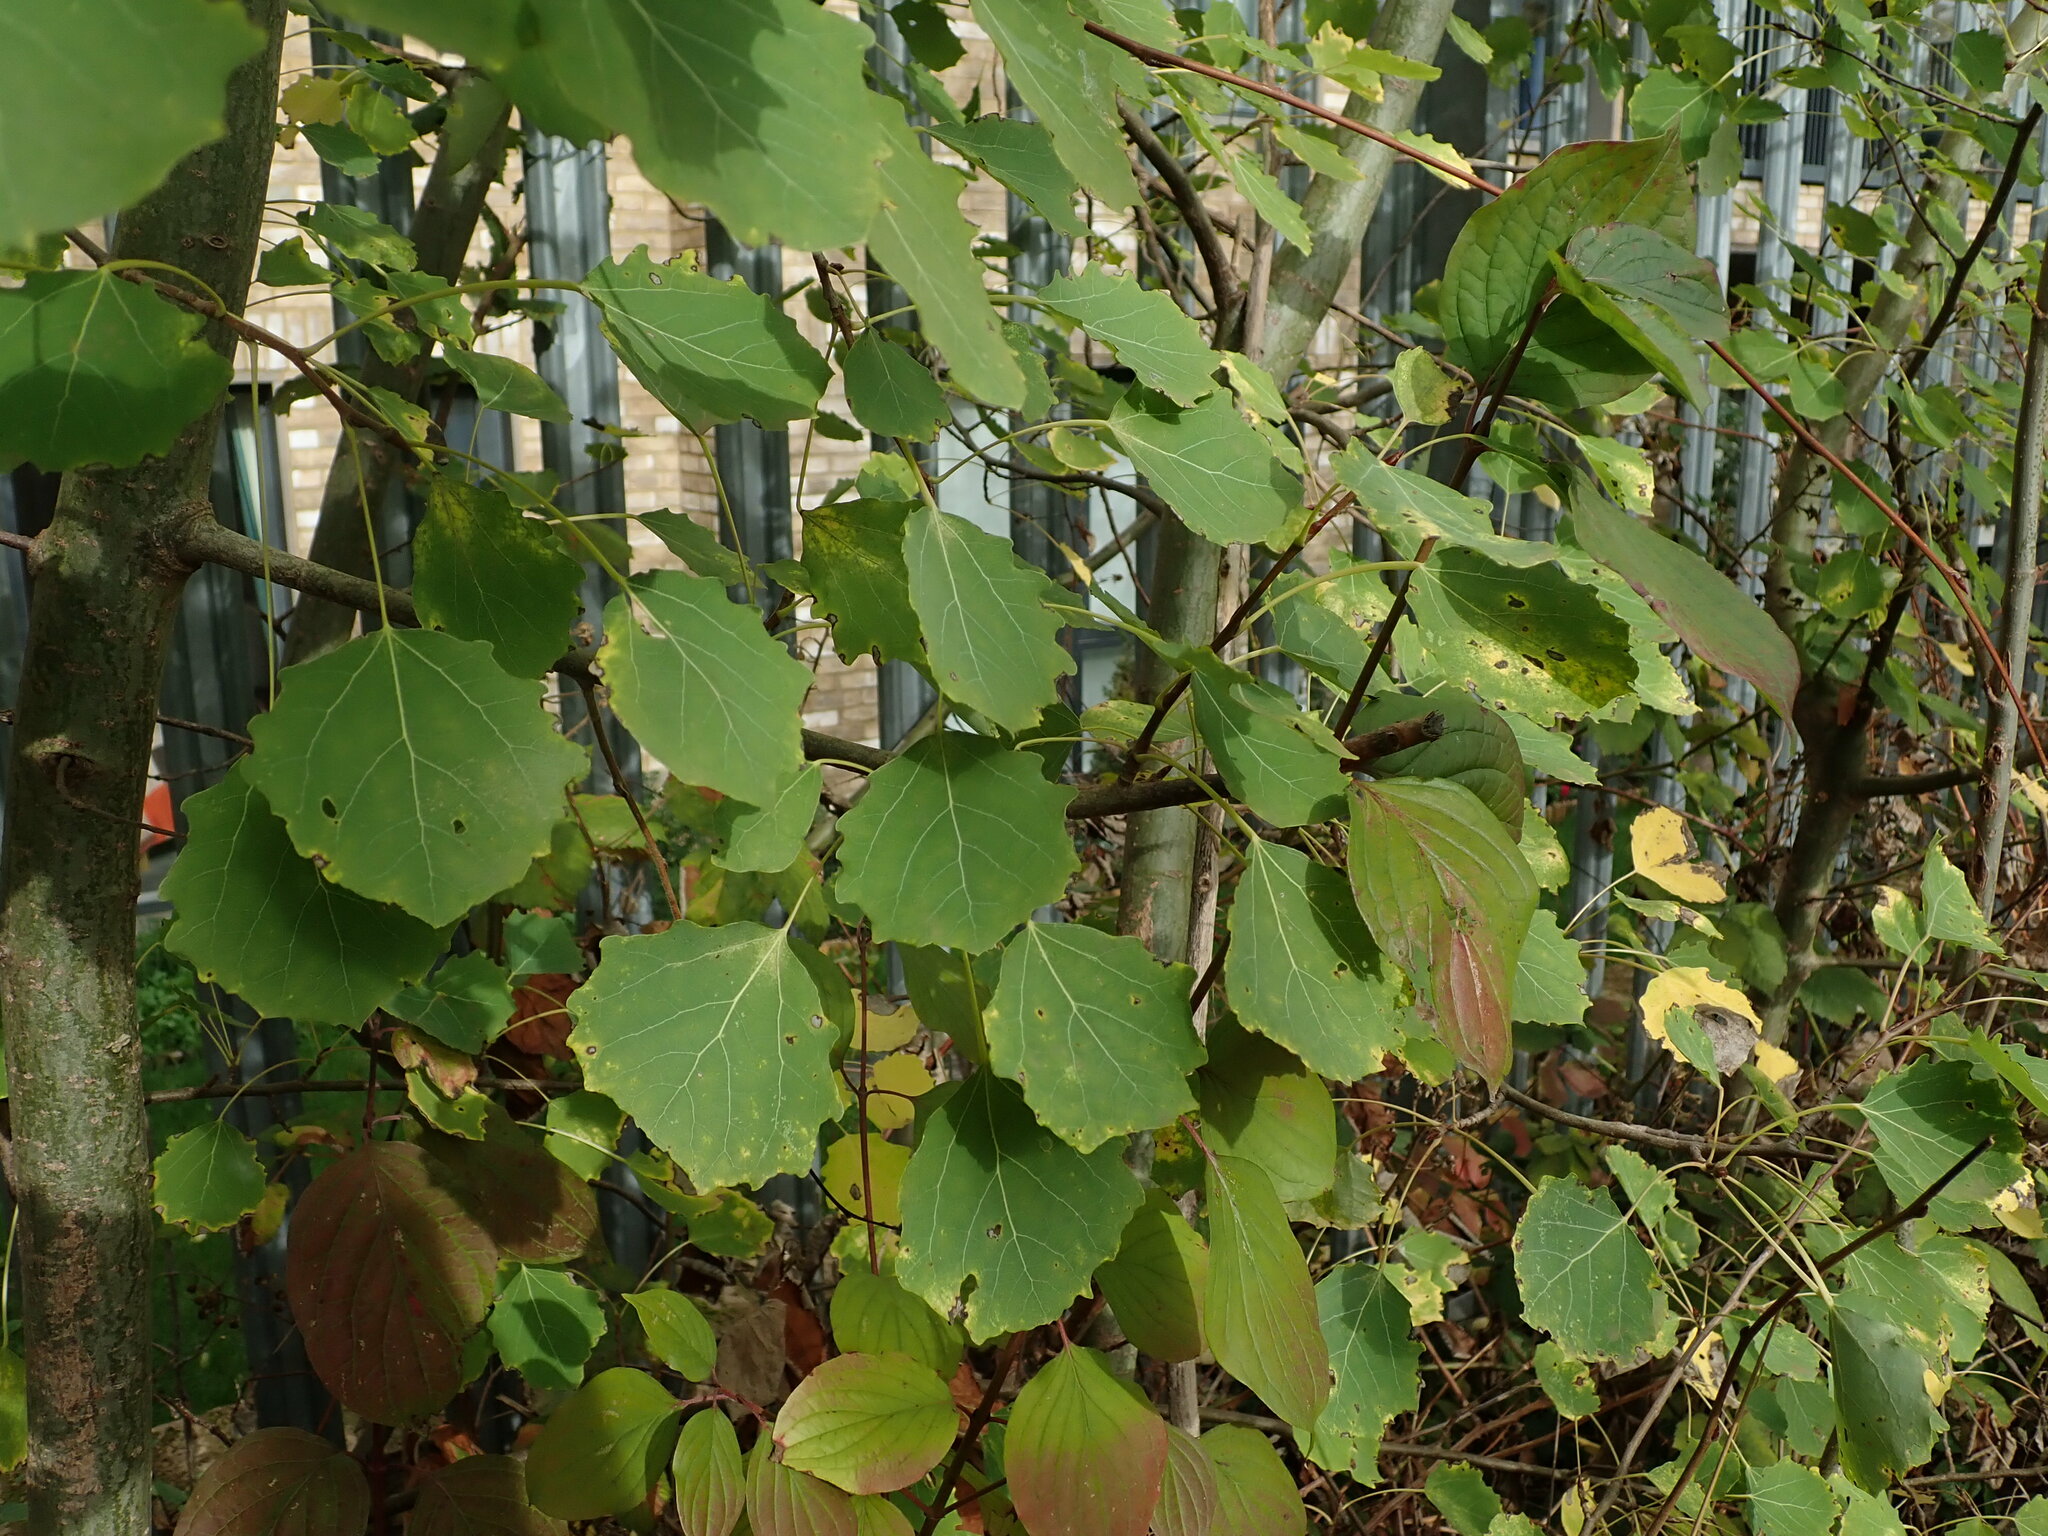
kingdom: Plantae
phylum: Tracheophyta
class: Magnoliopsida
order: Malpighiales
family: Salicaceae
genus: Populus
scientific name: Populus tremula
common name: European aspen
